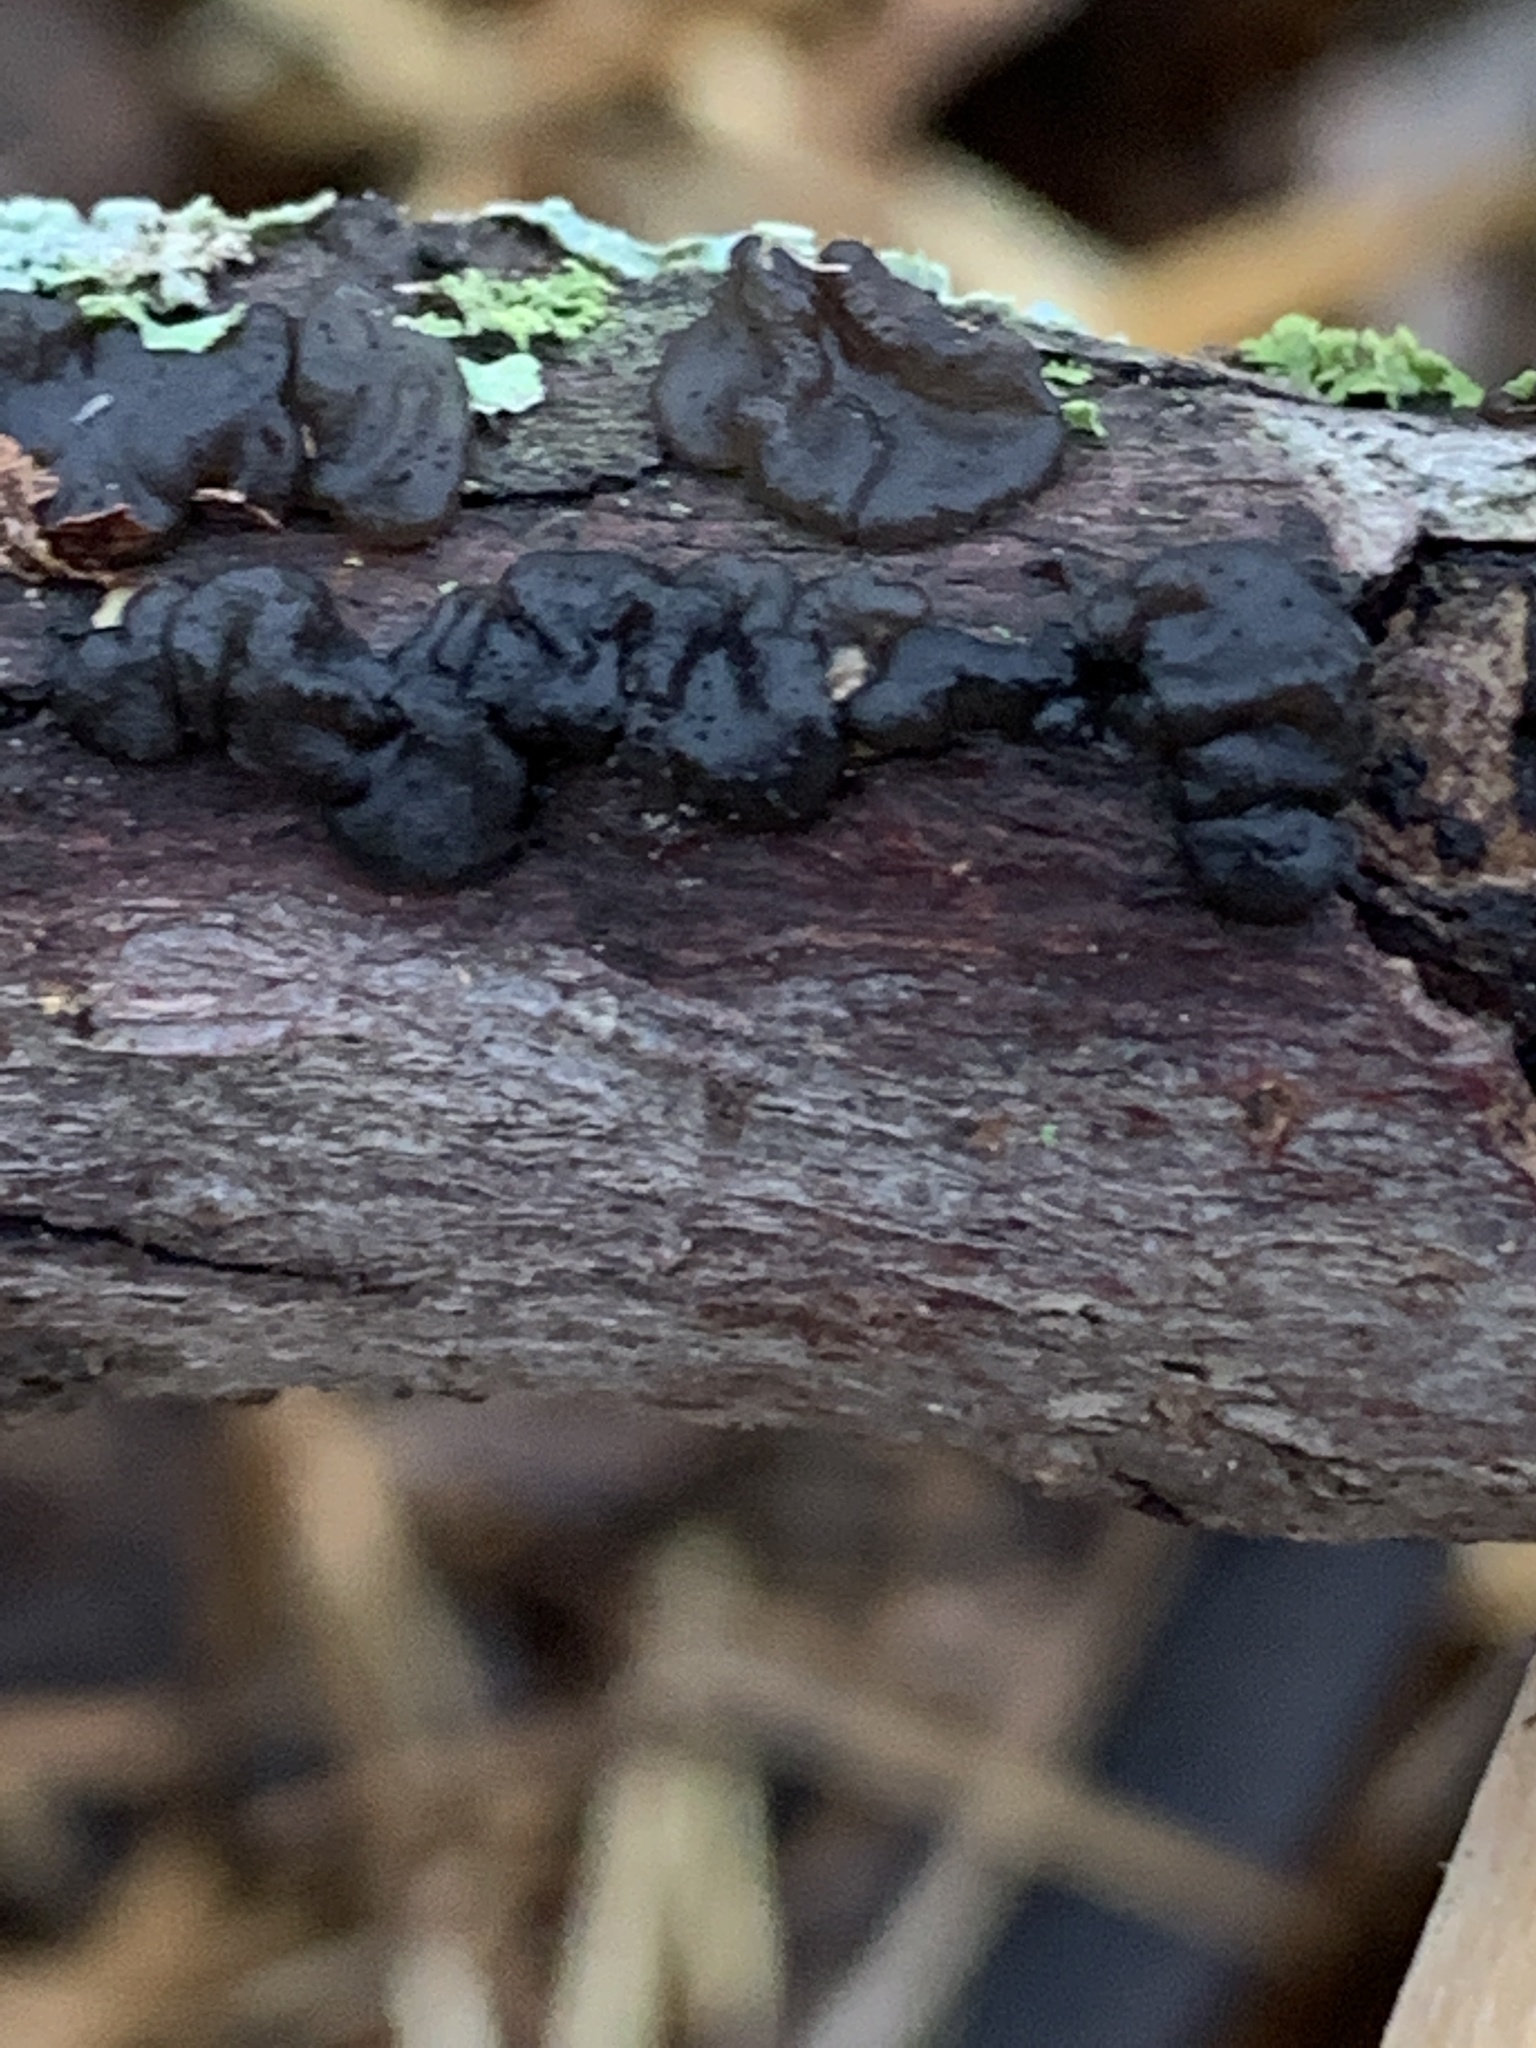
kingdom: Fungi
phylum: Basidiomycota
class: Agaricomycetes
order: Auriculariales
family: Auriculariaceae
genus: Exidia
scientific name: Exidia glandulosa
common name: Witches' butter
